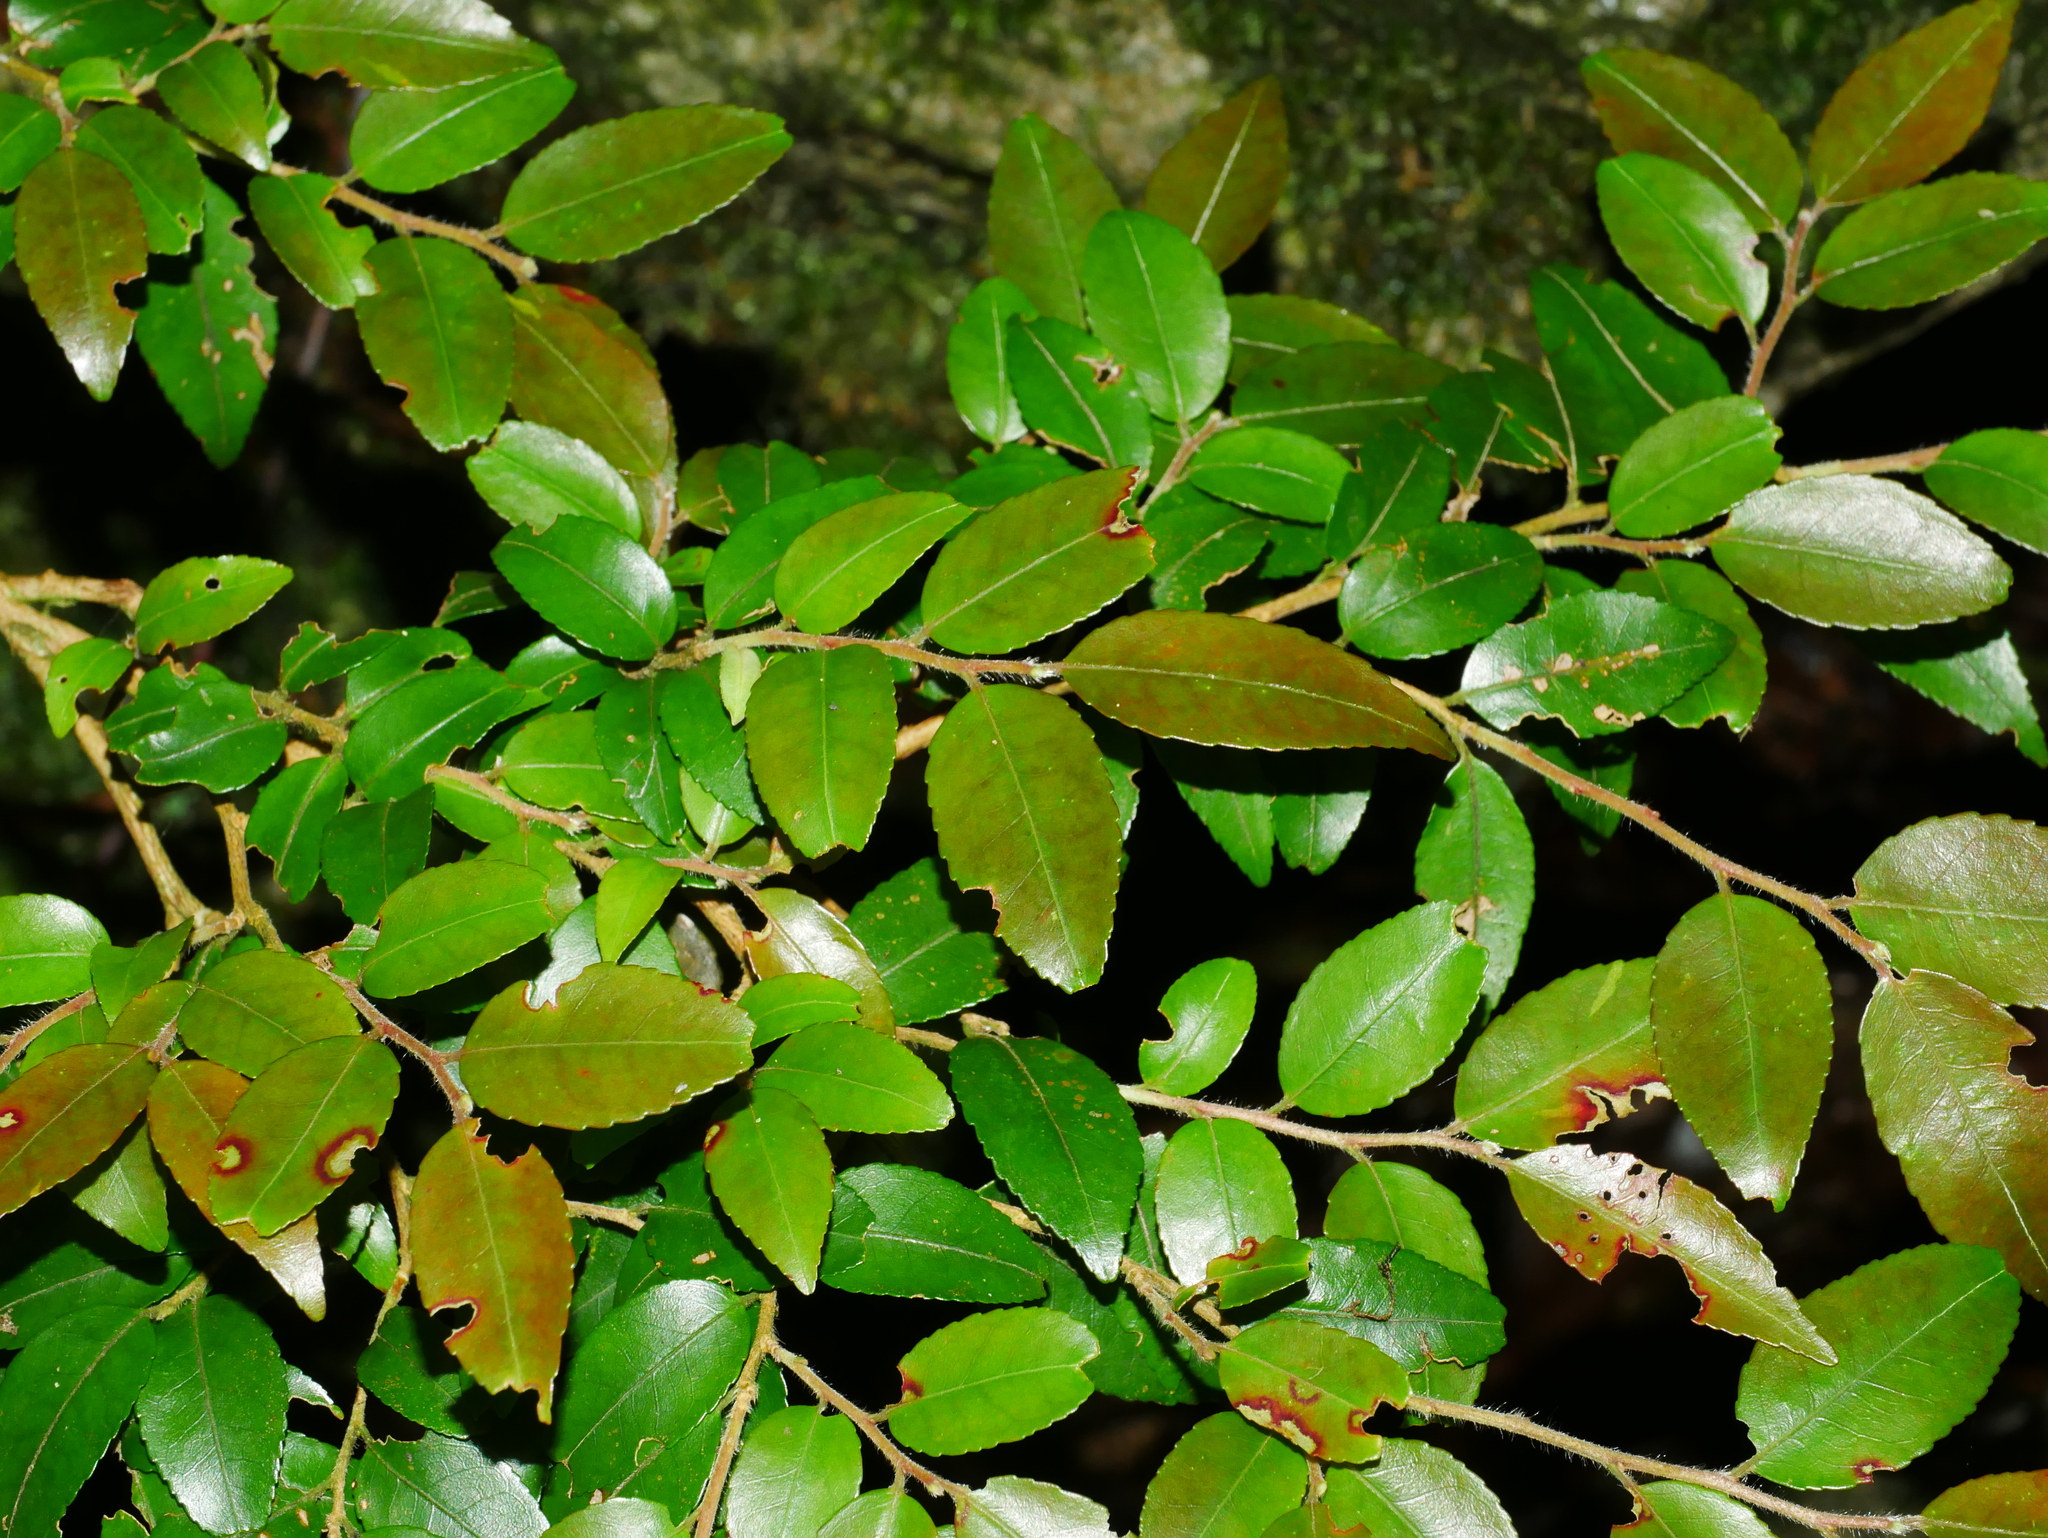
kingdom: Plantae
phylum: Tracheophyta
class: Magnoliopsida
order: Ericales
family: Theaceae
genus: Camellia
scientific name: Camellia lutchuensis
